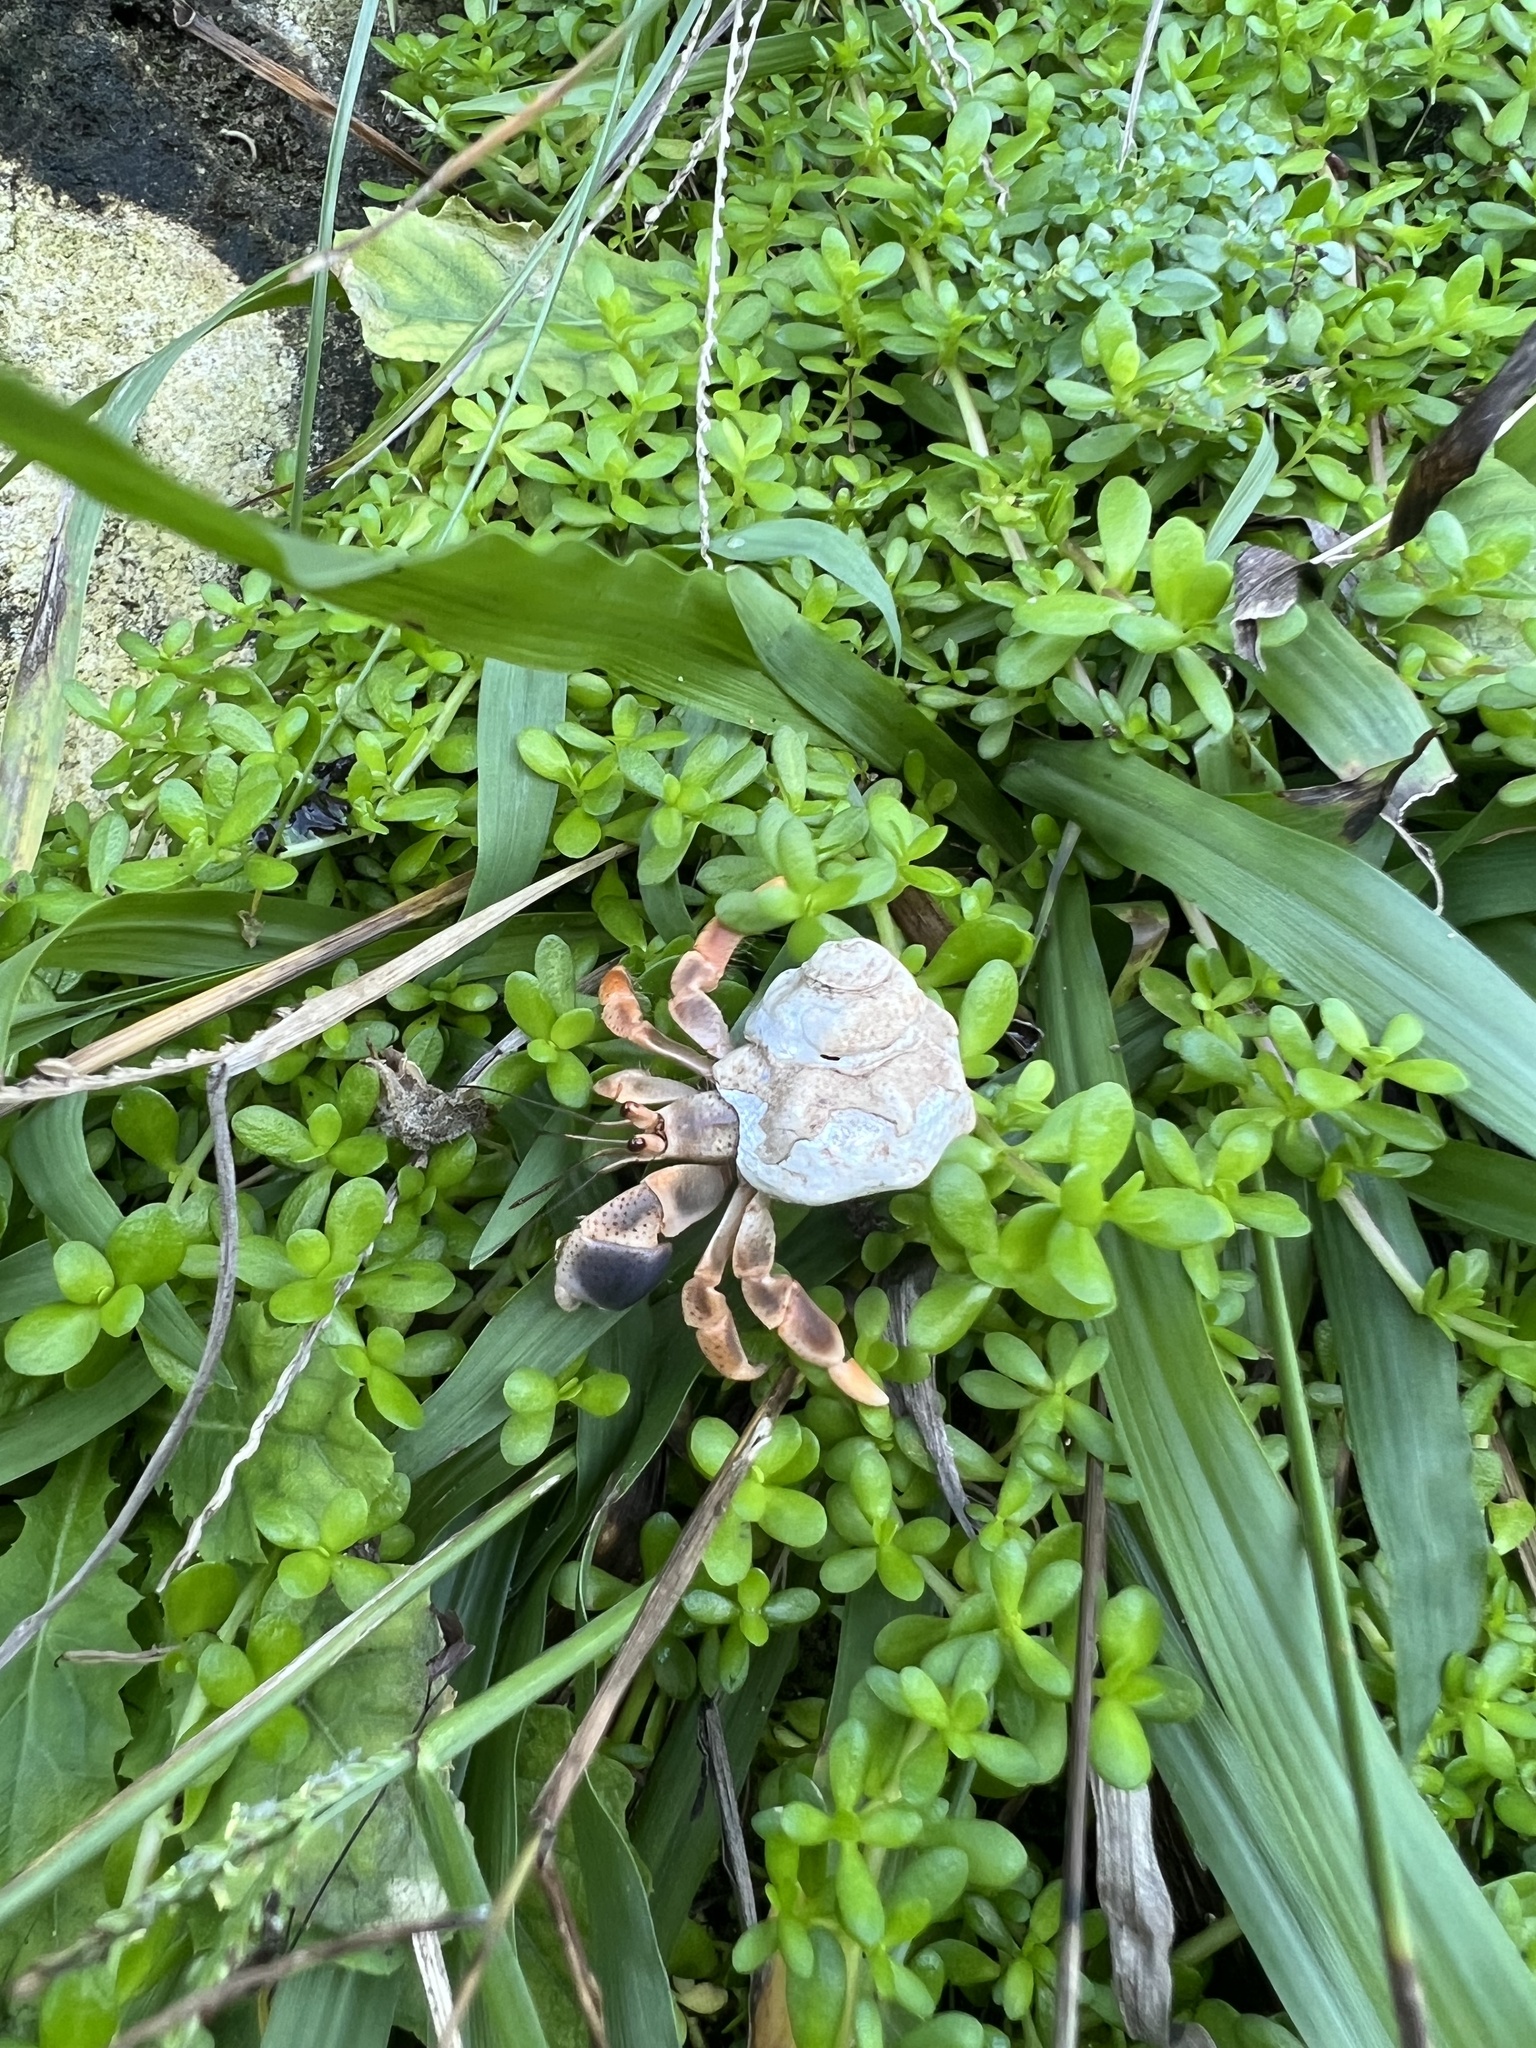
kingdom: Animalia
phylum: Arthropoda
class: Malacostraca
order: Decapoda
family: Coenobitidae
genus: Coenobita
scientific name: Coenobita clypeatus
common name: Caribbean hermit crab
